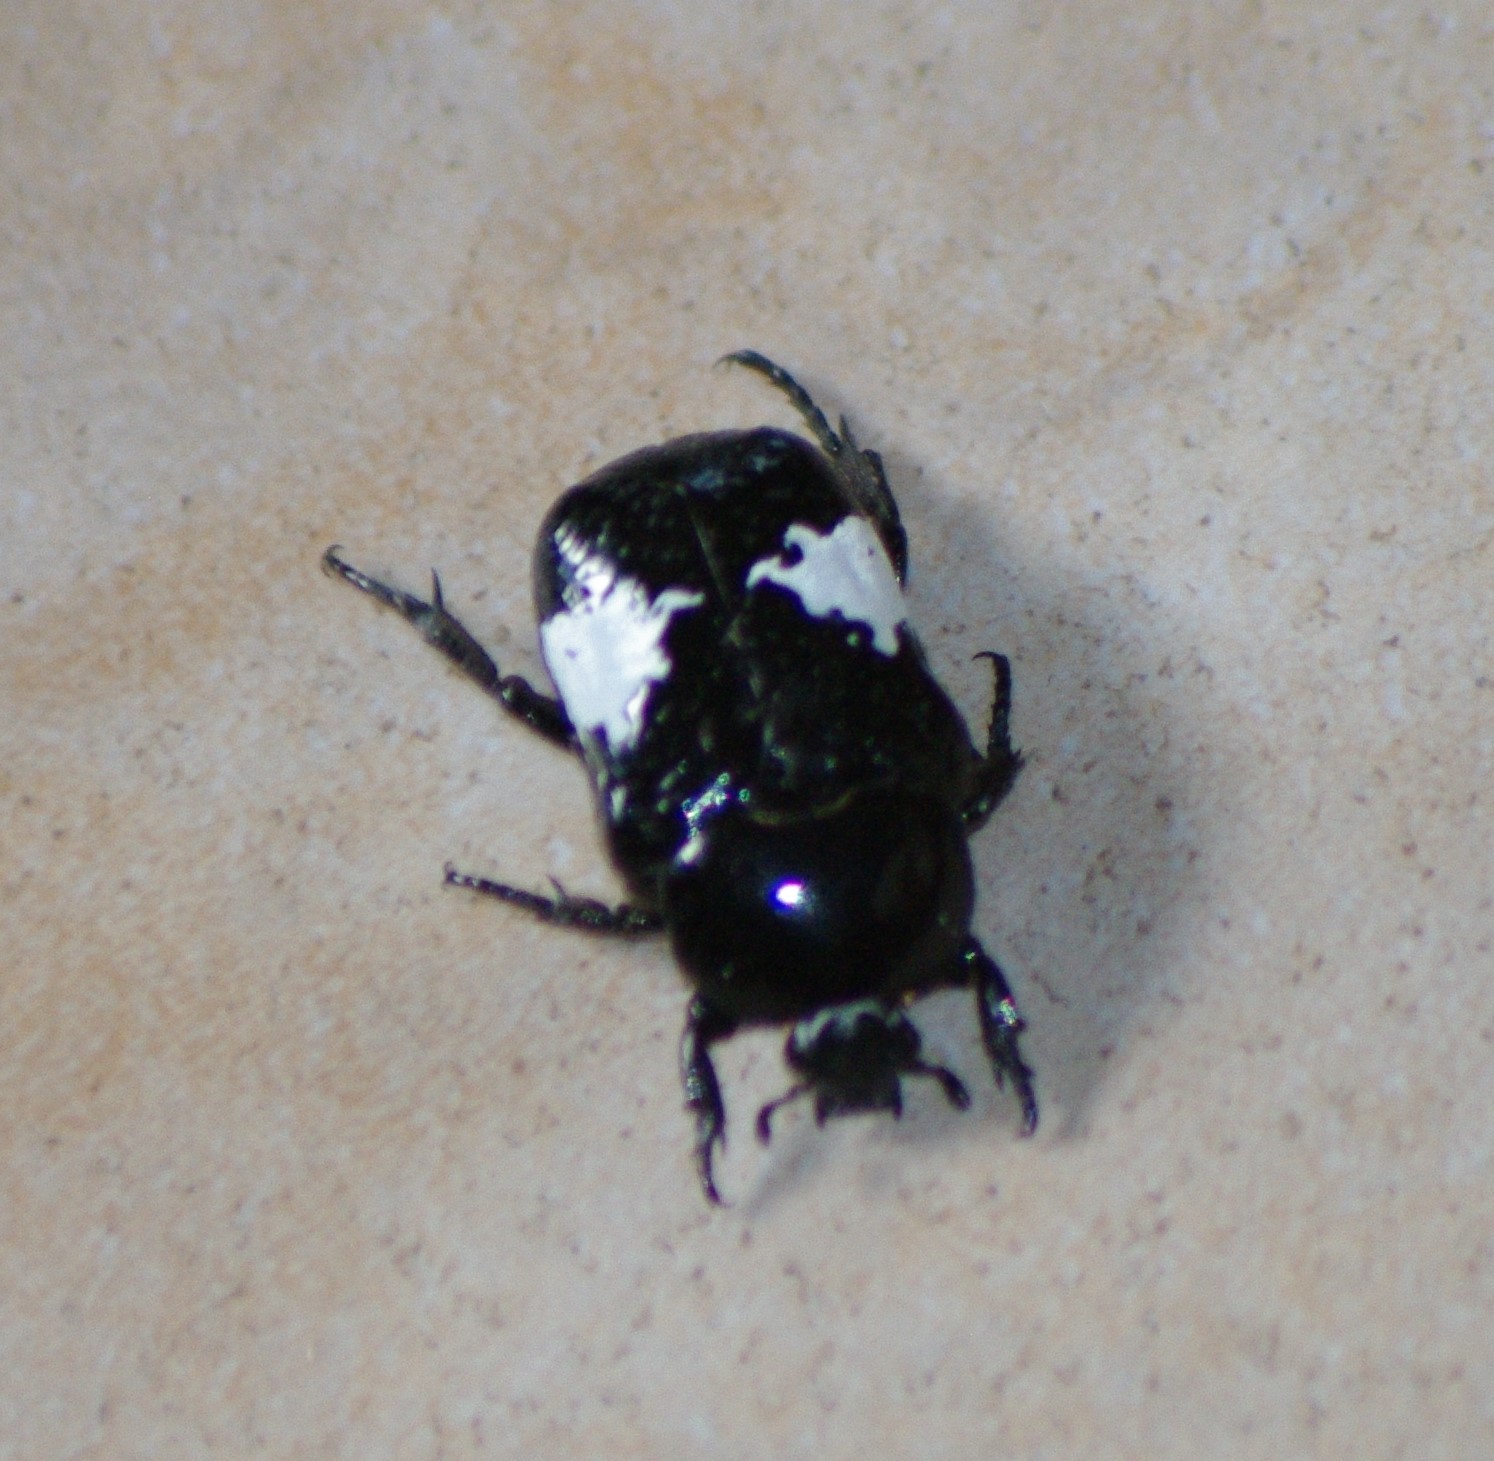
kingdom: Animalia
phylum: Arthropoda
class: Insecta
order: Coleoptera
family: Scarabaeidae
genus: Spilophorus
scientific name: Spilophorus plagosus
